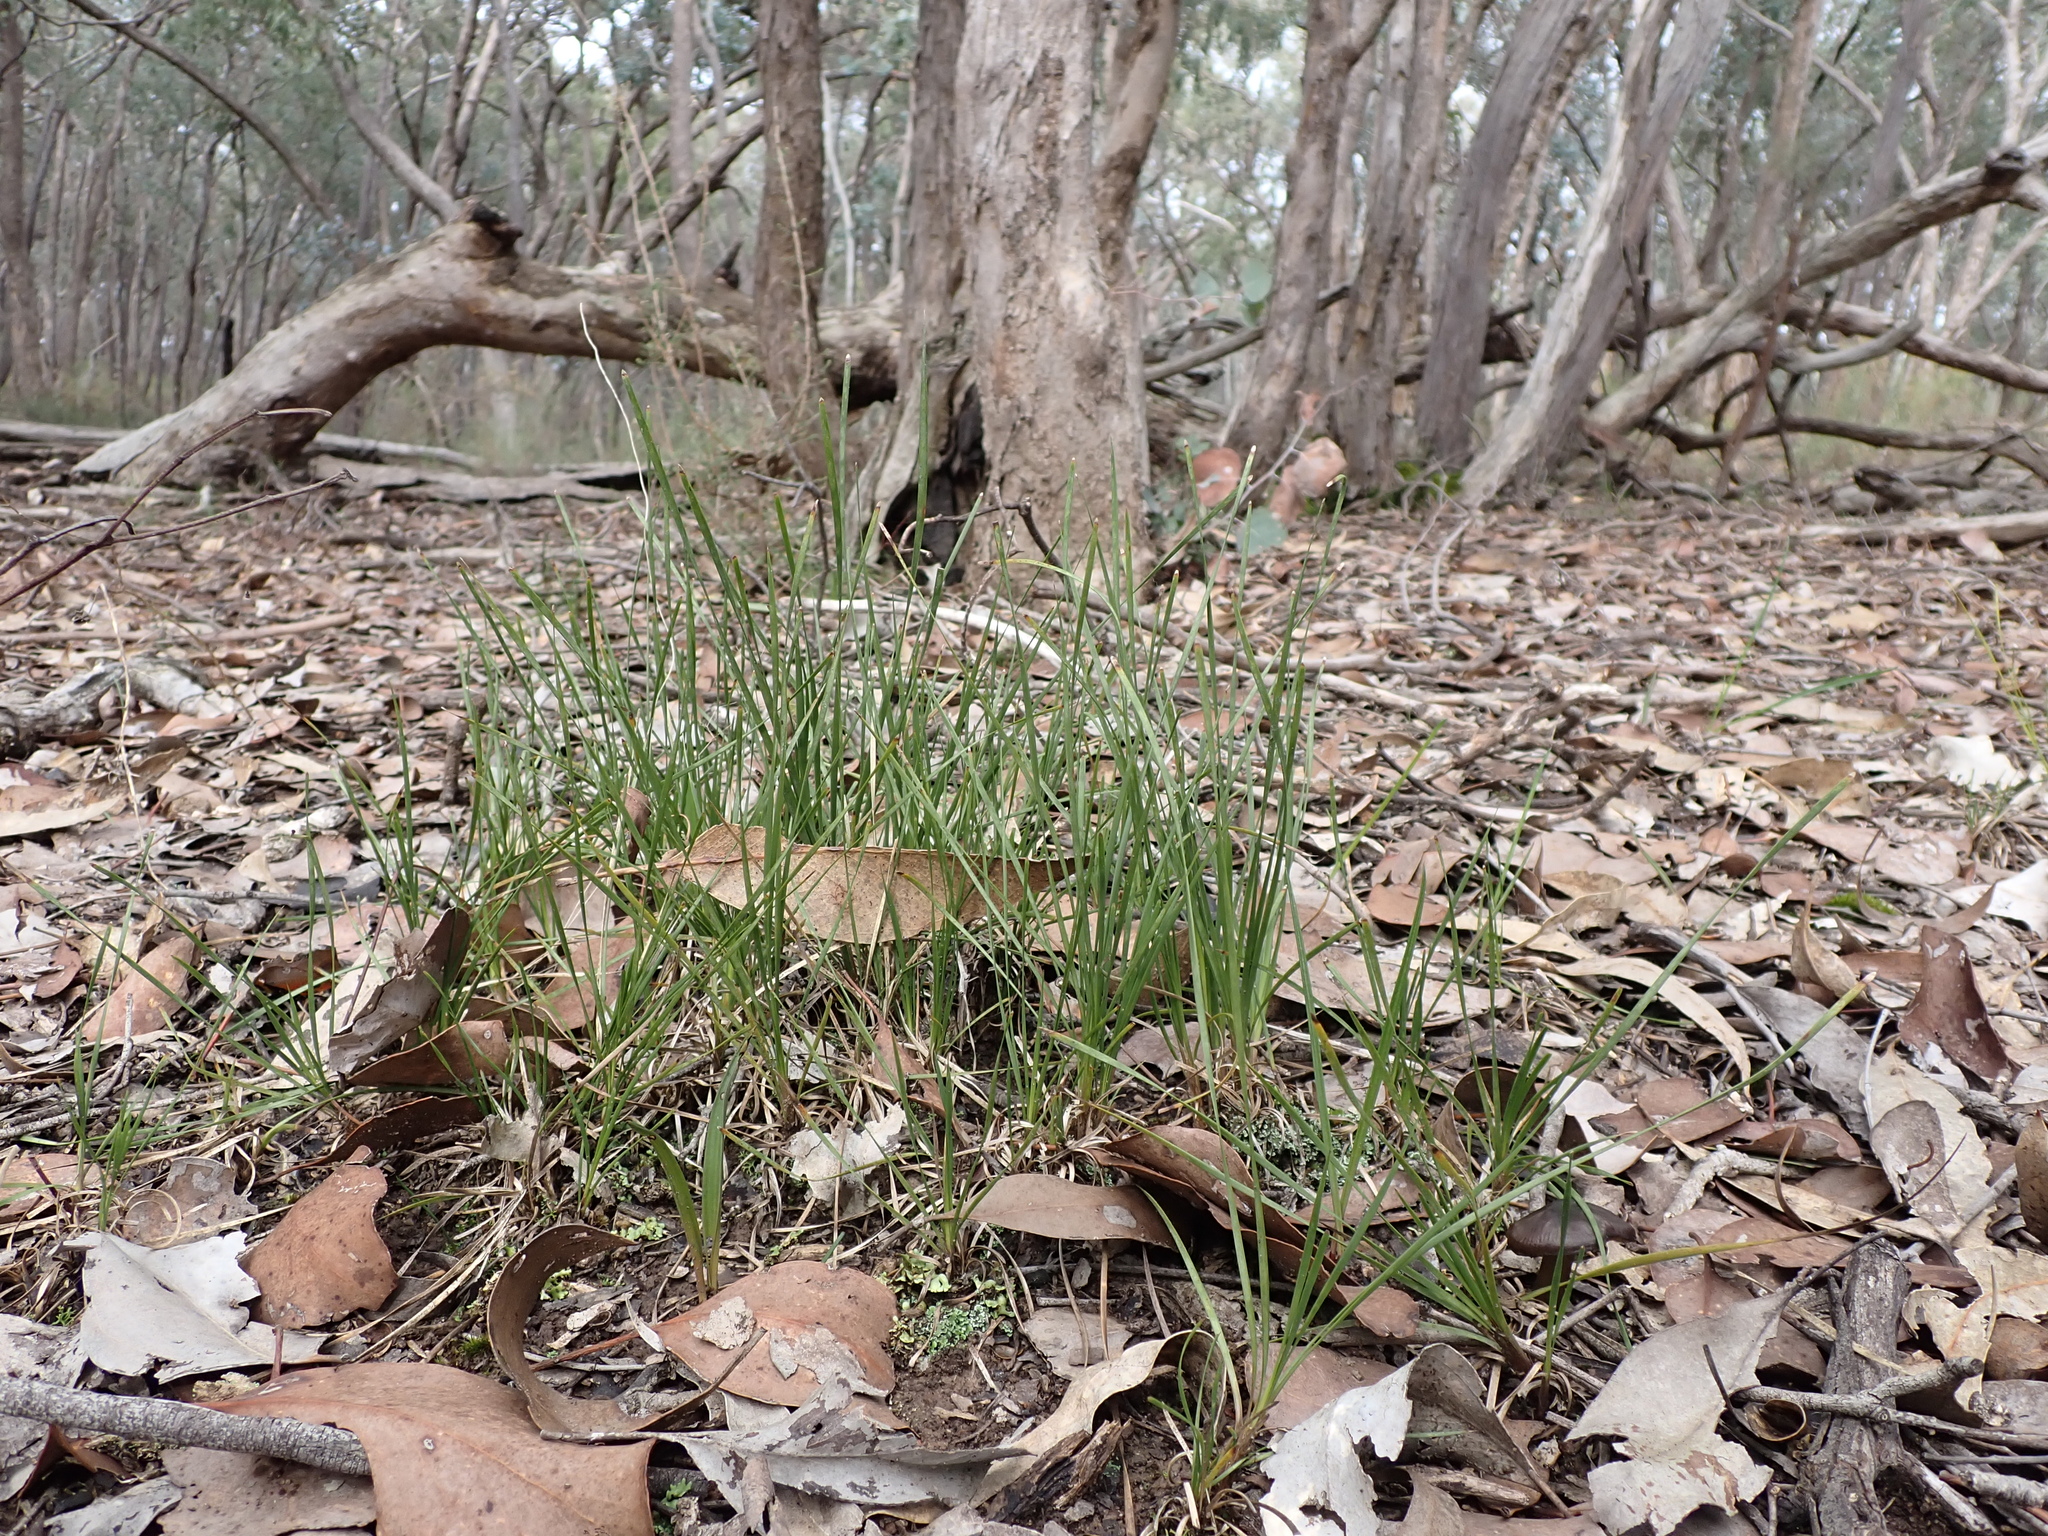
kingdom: Plantae
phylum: Tracheophyta
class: Liliopsida
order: Asparagales
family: Asparagaceae
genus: Lomandra
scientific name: Lomandra filiformis
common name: Wattle mat-rush
